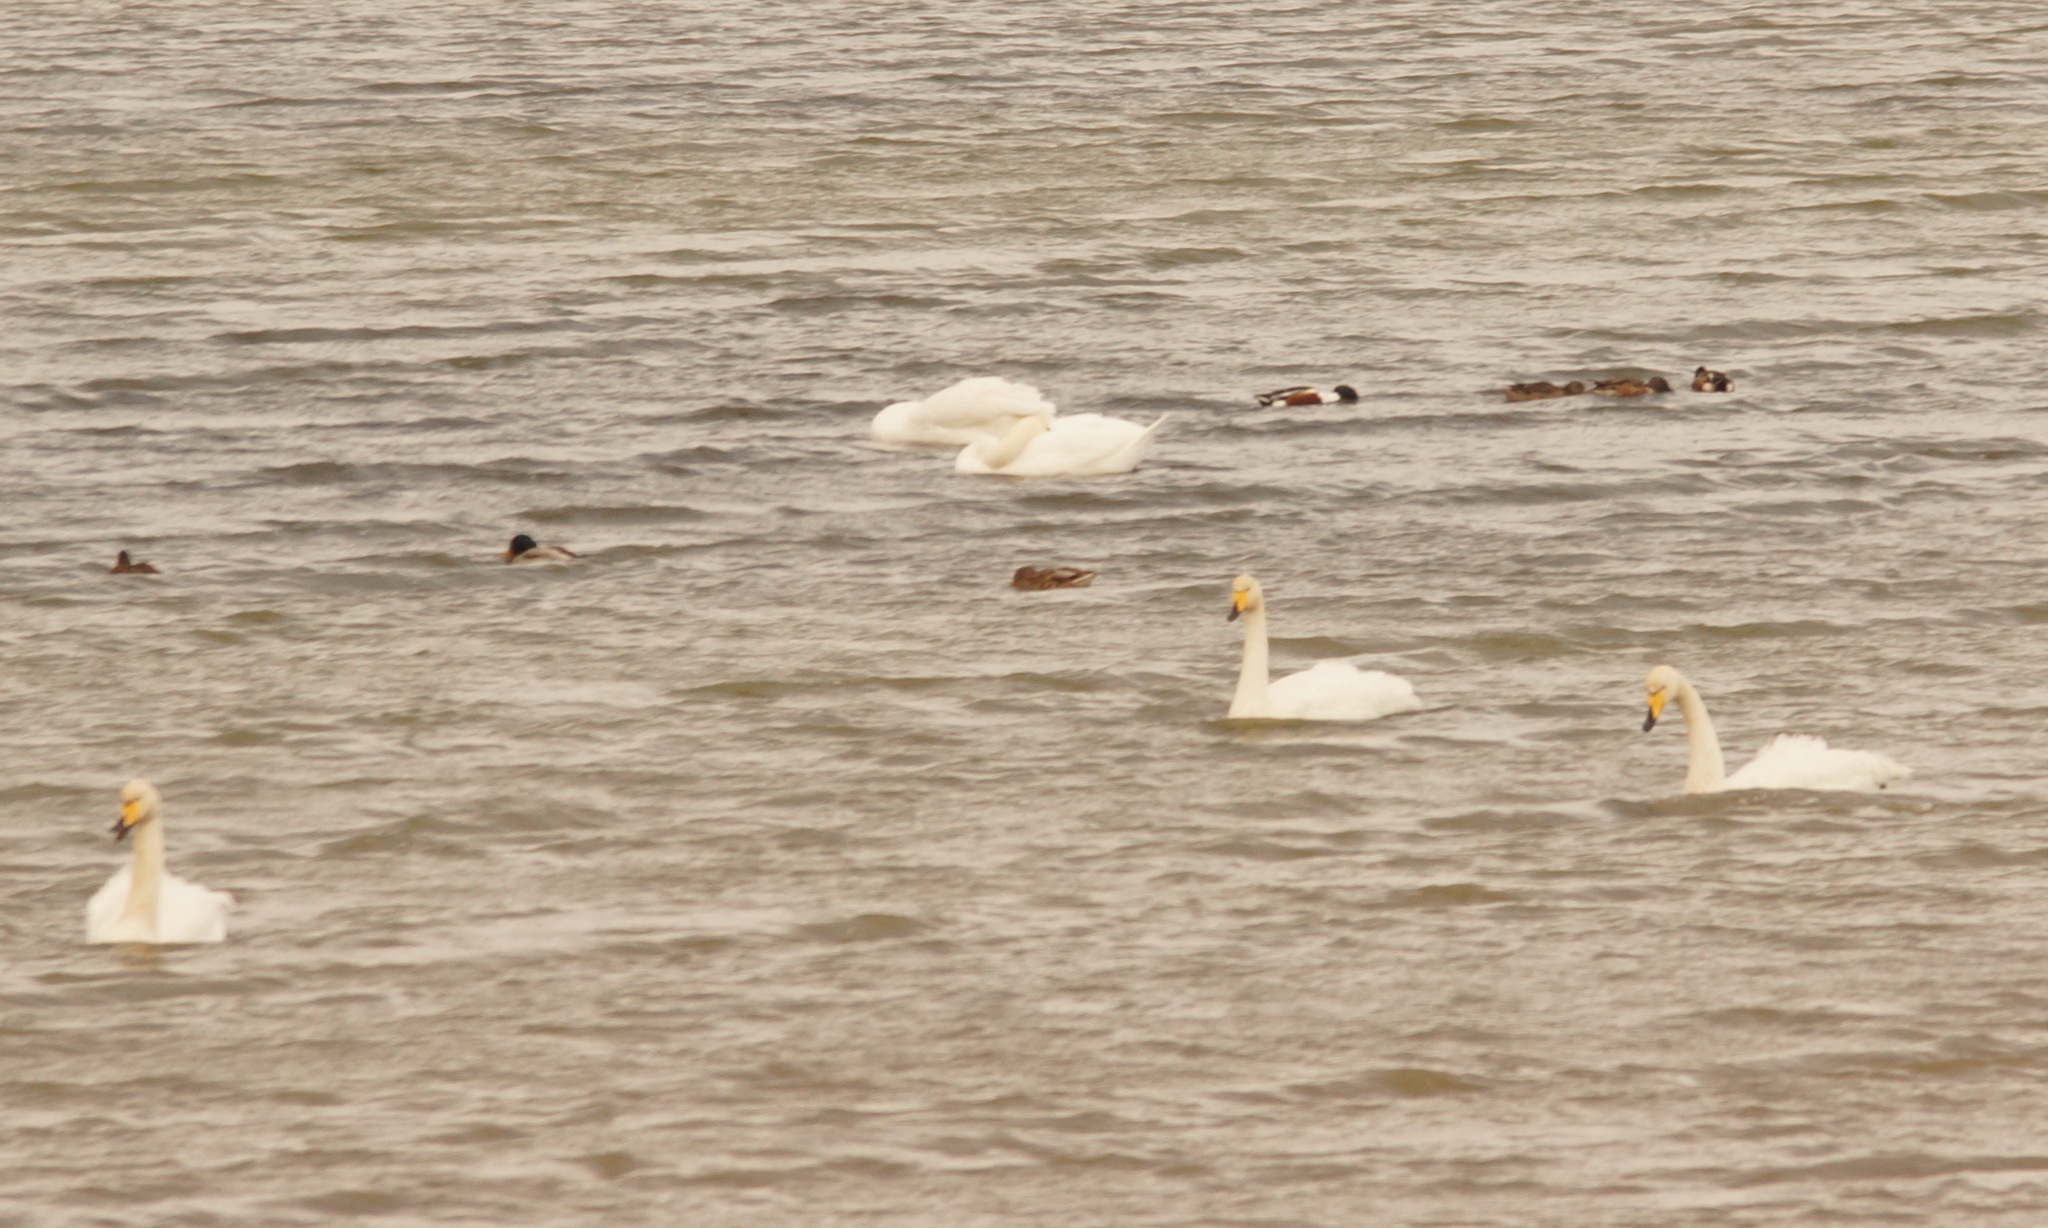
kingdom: Animalia
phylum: Chordata
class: Aves
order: Anseriformes
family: Anatidae
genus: Spatula
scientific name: Spatula clypeata
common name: Northern shoveler
